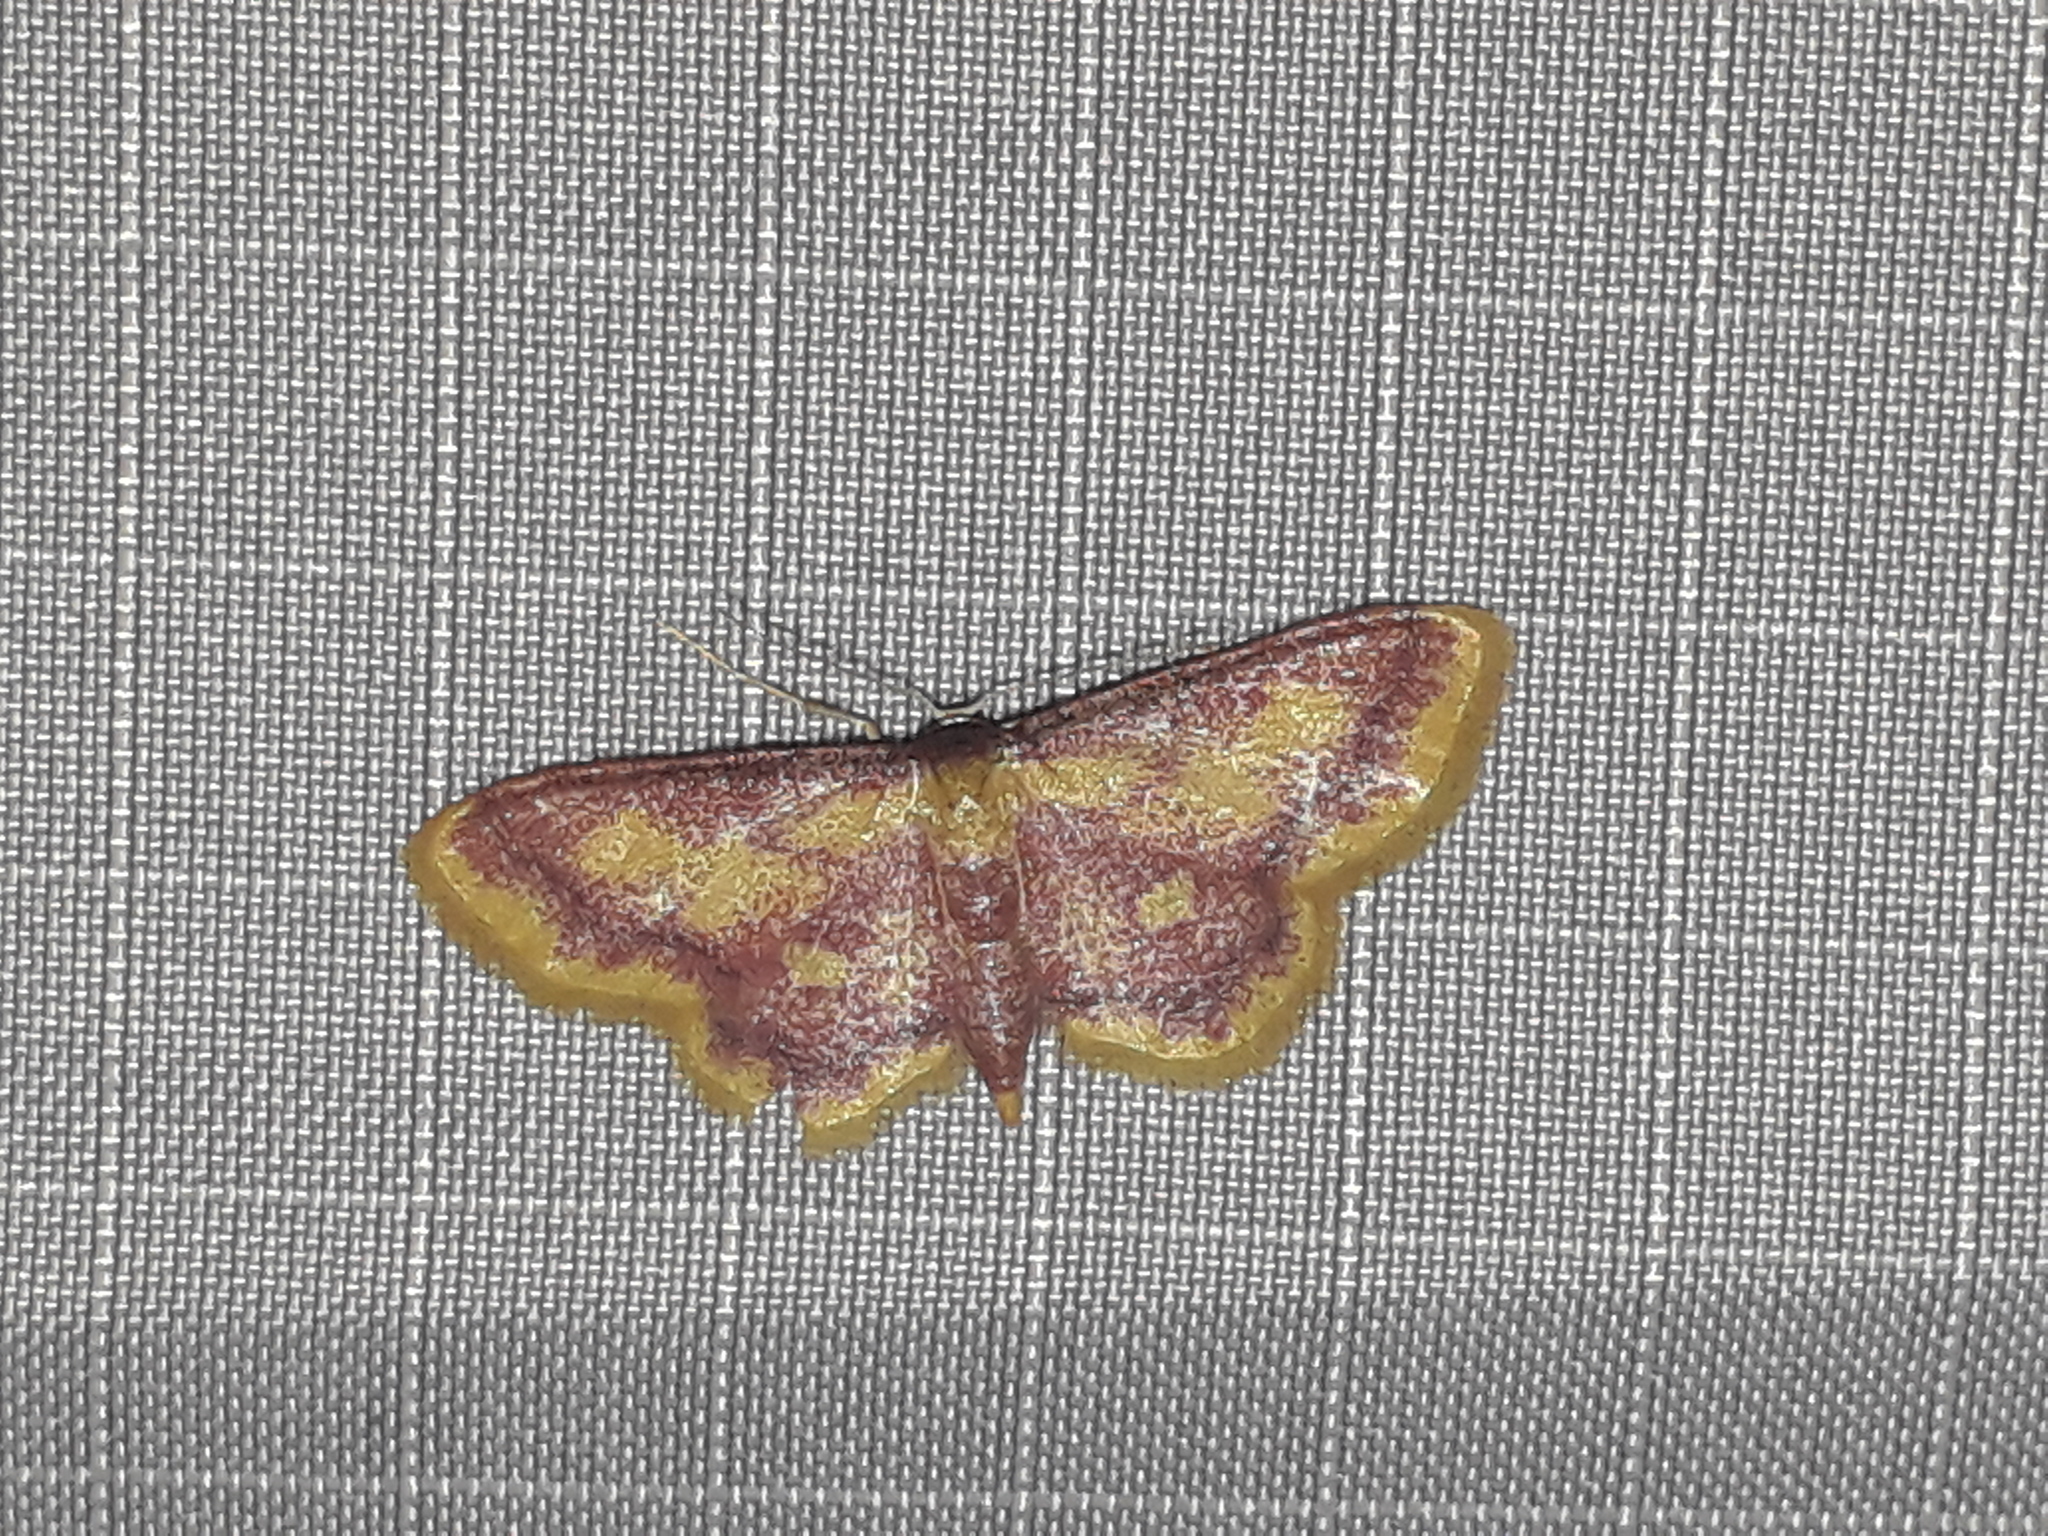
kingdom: Animalia
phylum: Arthropoda
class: Insecta
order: Lepidoptera
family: Geometridae
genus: Idaea
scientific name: Idaea muricata
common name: Purple-bordered gold
